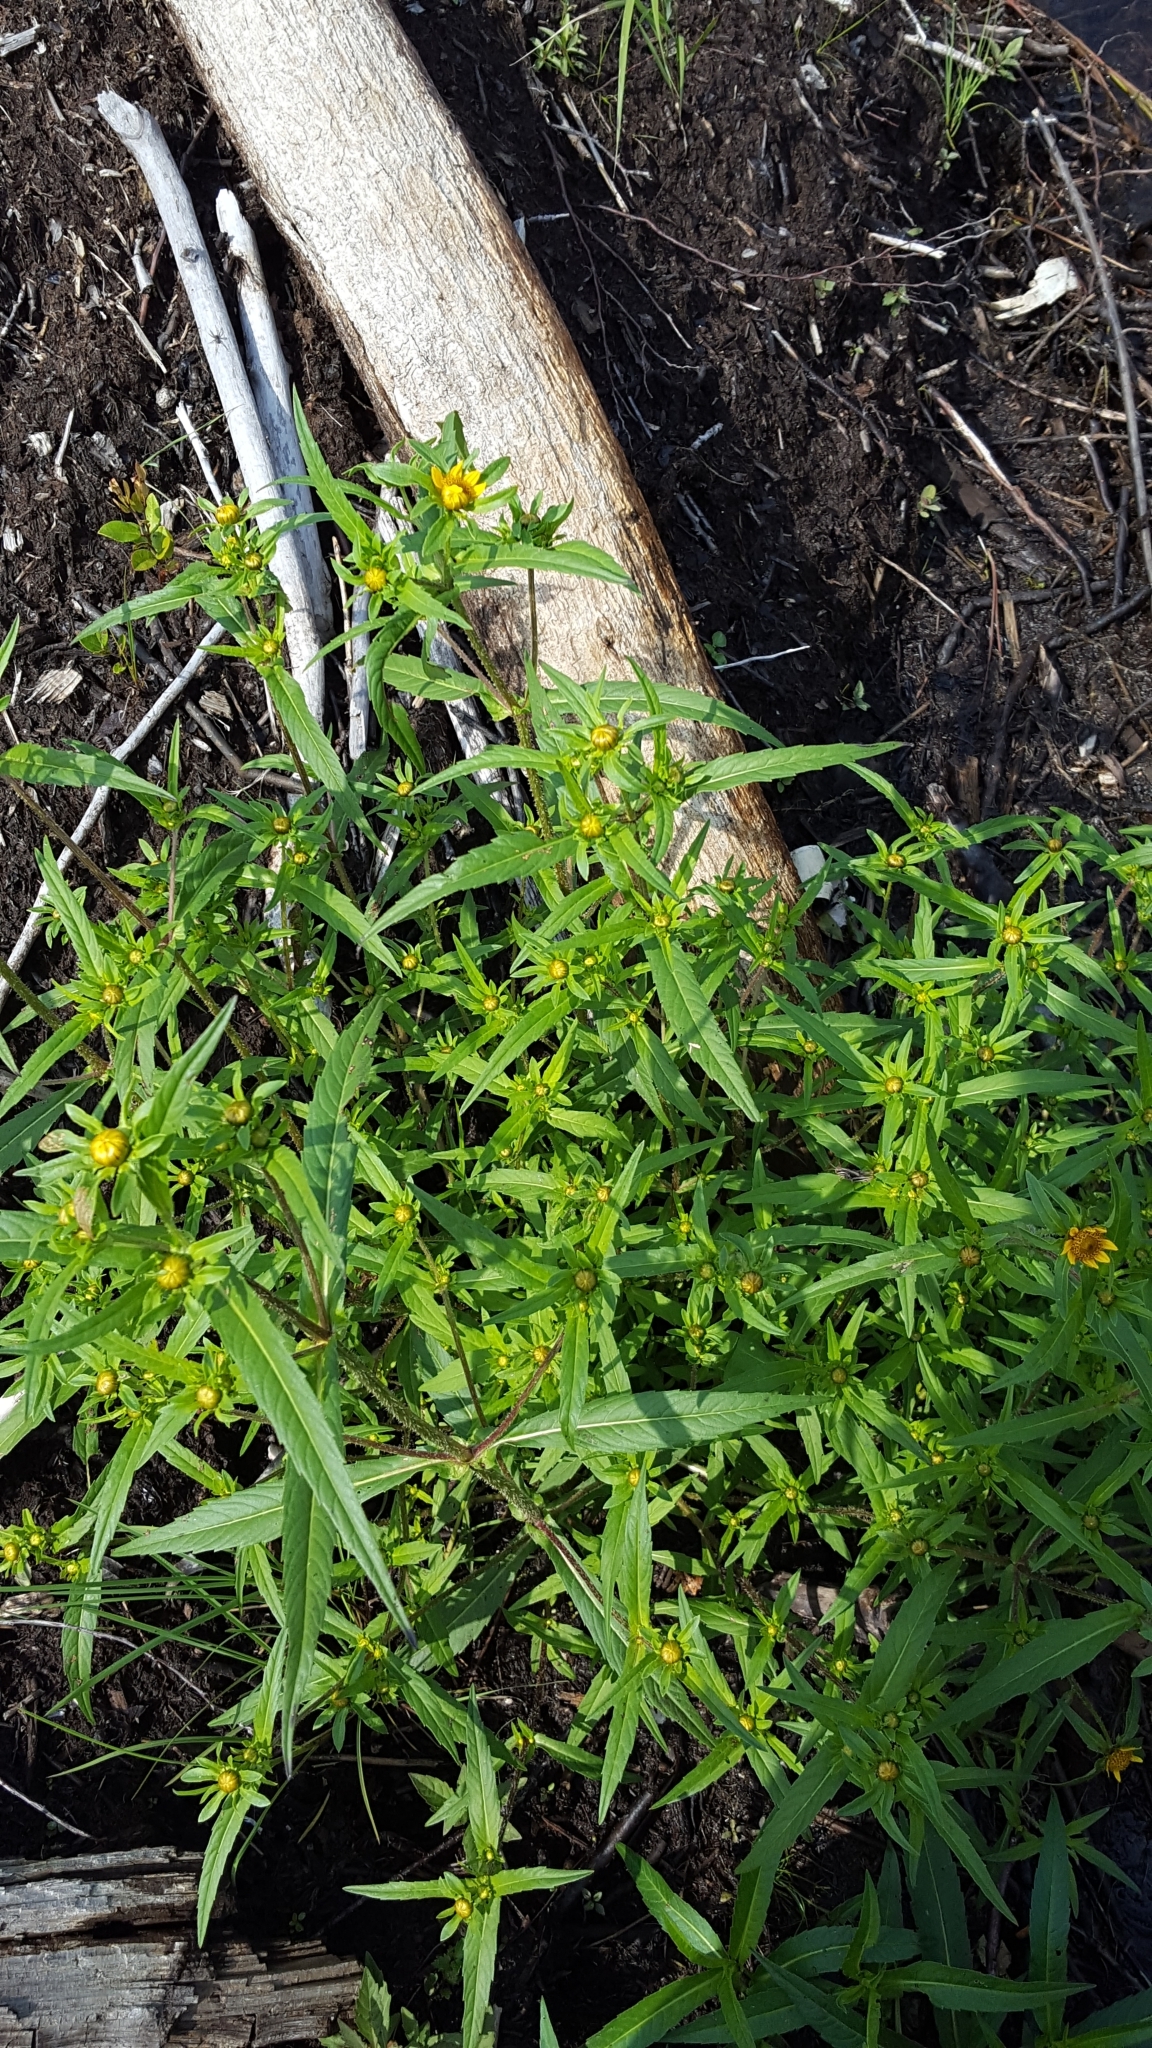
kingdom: Plantae
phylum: Tracheophyta
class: Magnoliopsida
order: Asterales
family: Asteraceae
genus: Bidens
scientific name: Bidens cernua
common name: Nodding bur-marigold
